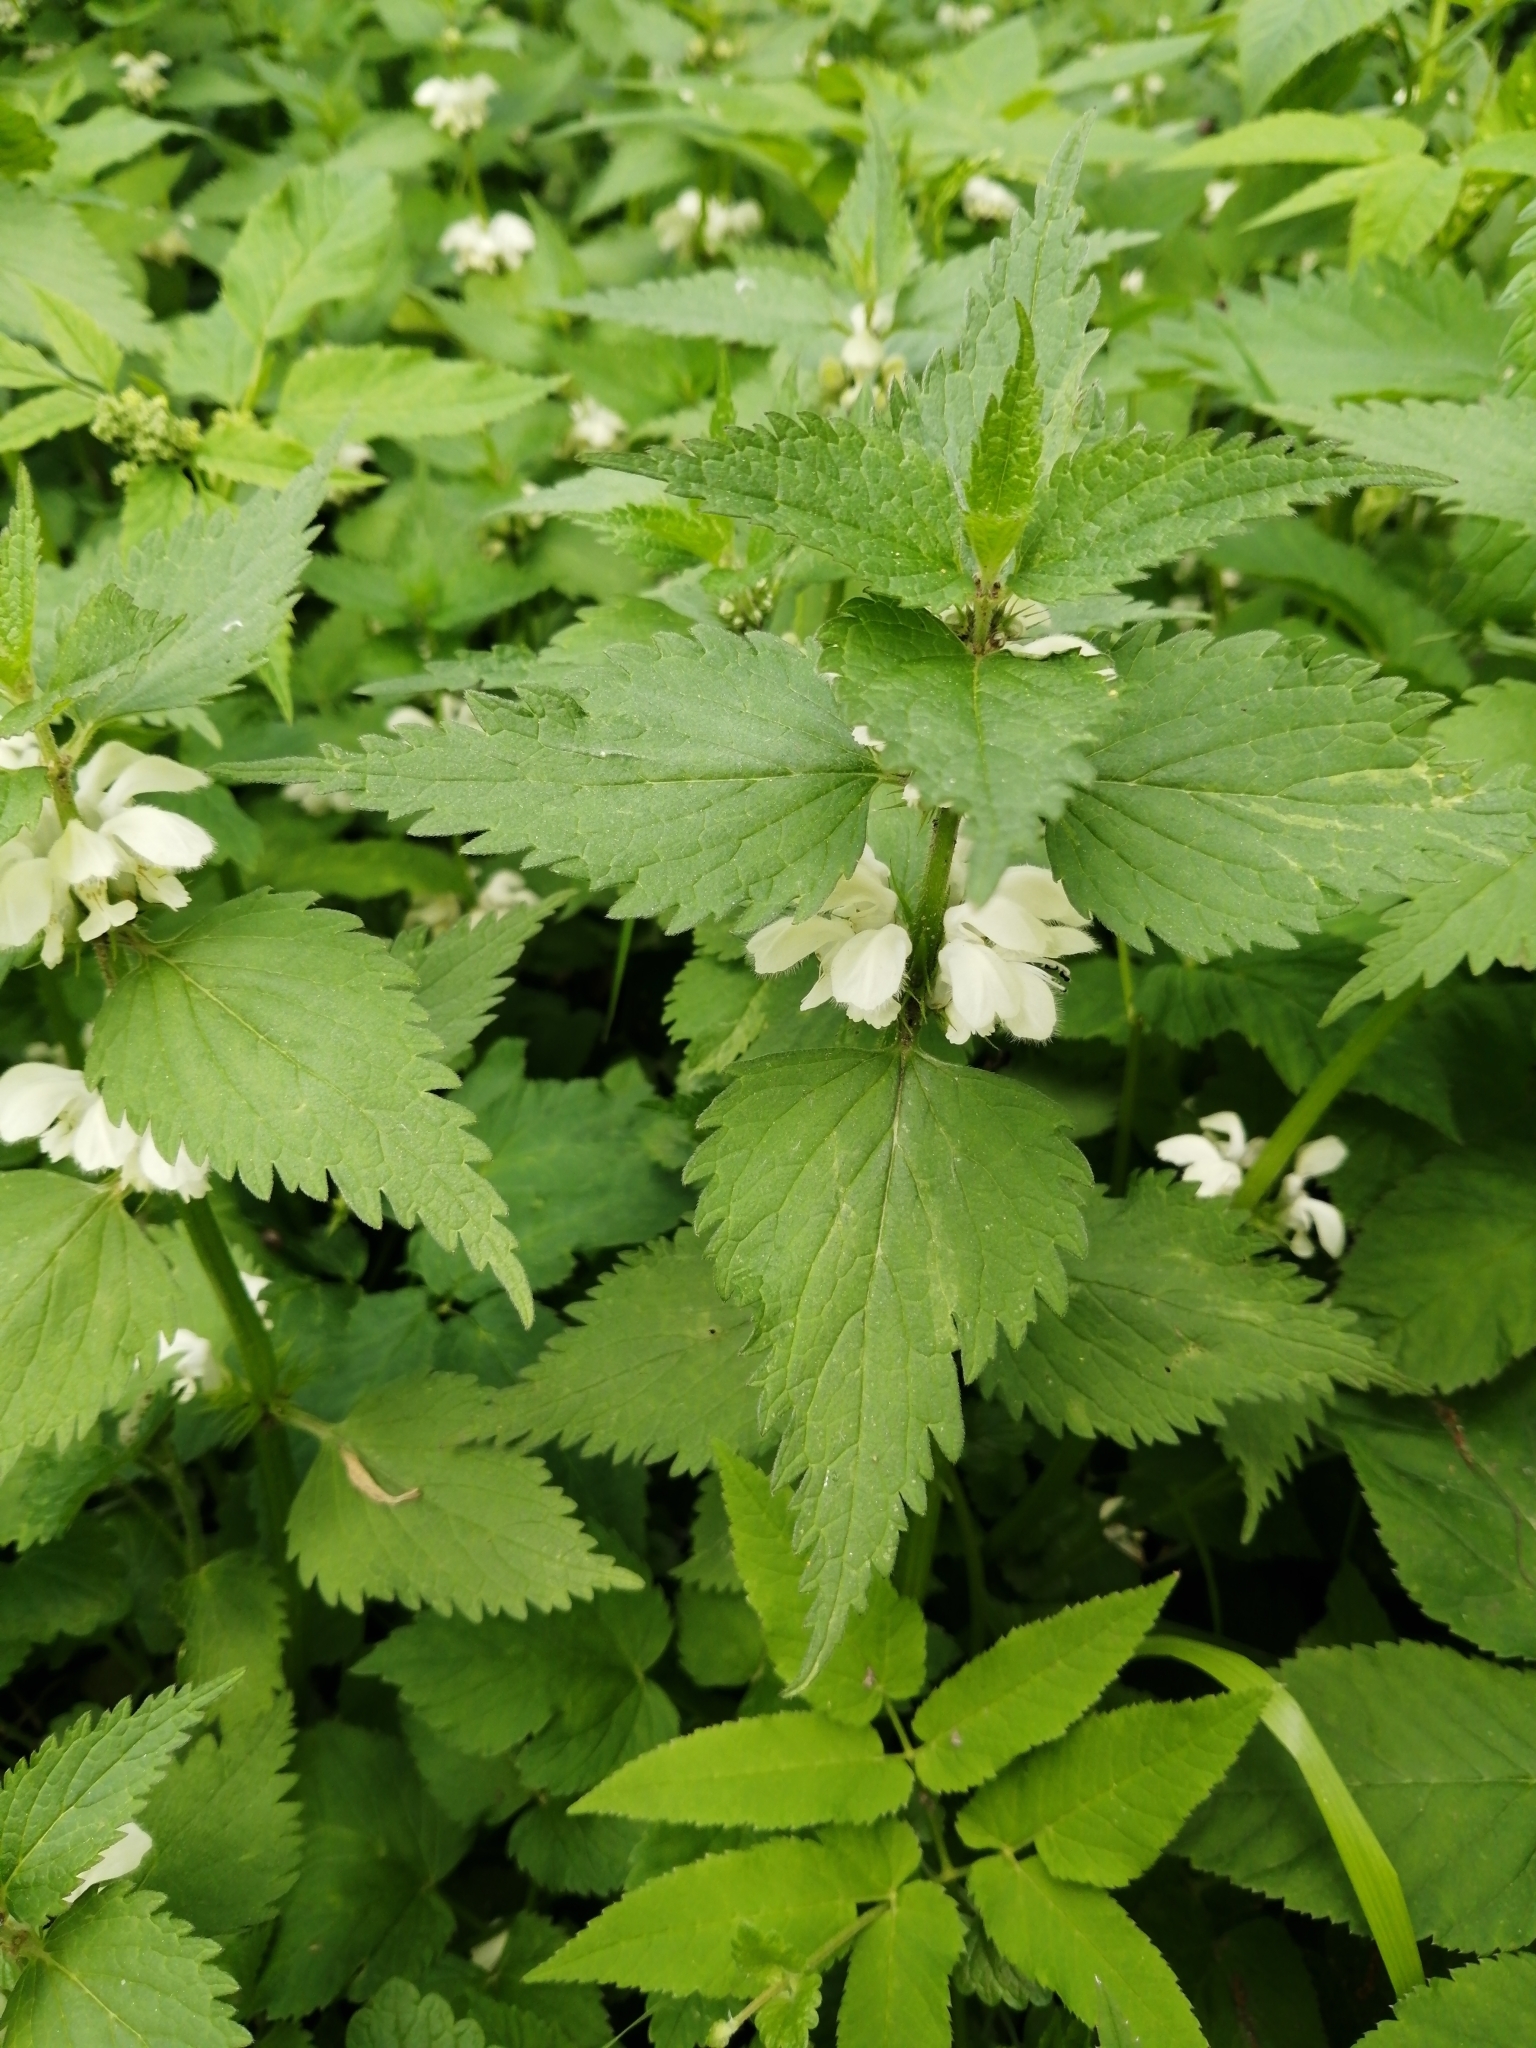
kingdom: Plantae
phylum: Tracheophyta
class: Magnoliopsida
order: Lamiales
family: Lamiaceae
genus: Lamium
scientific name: Lamium album
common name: White dead-nettle
